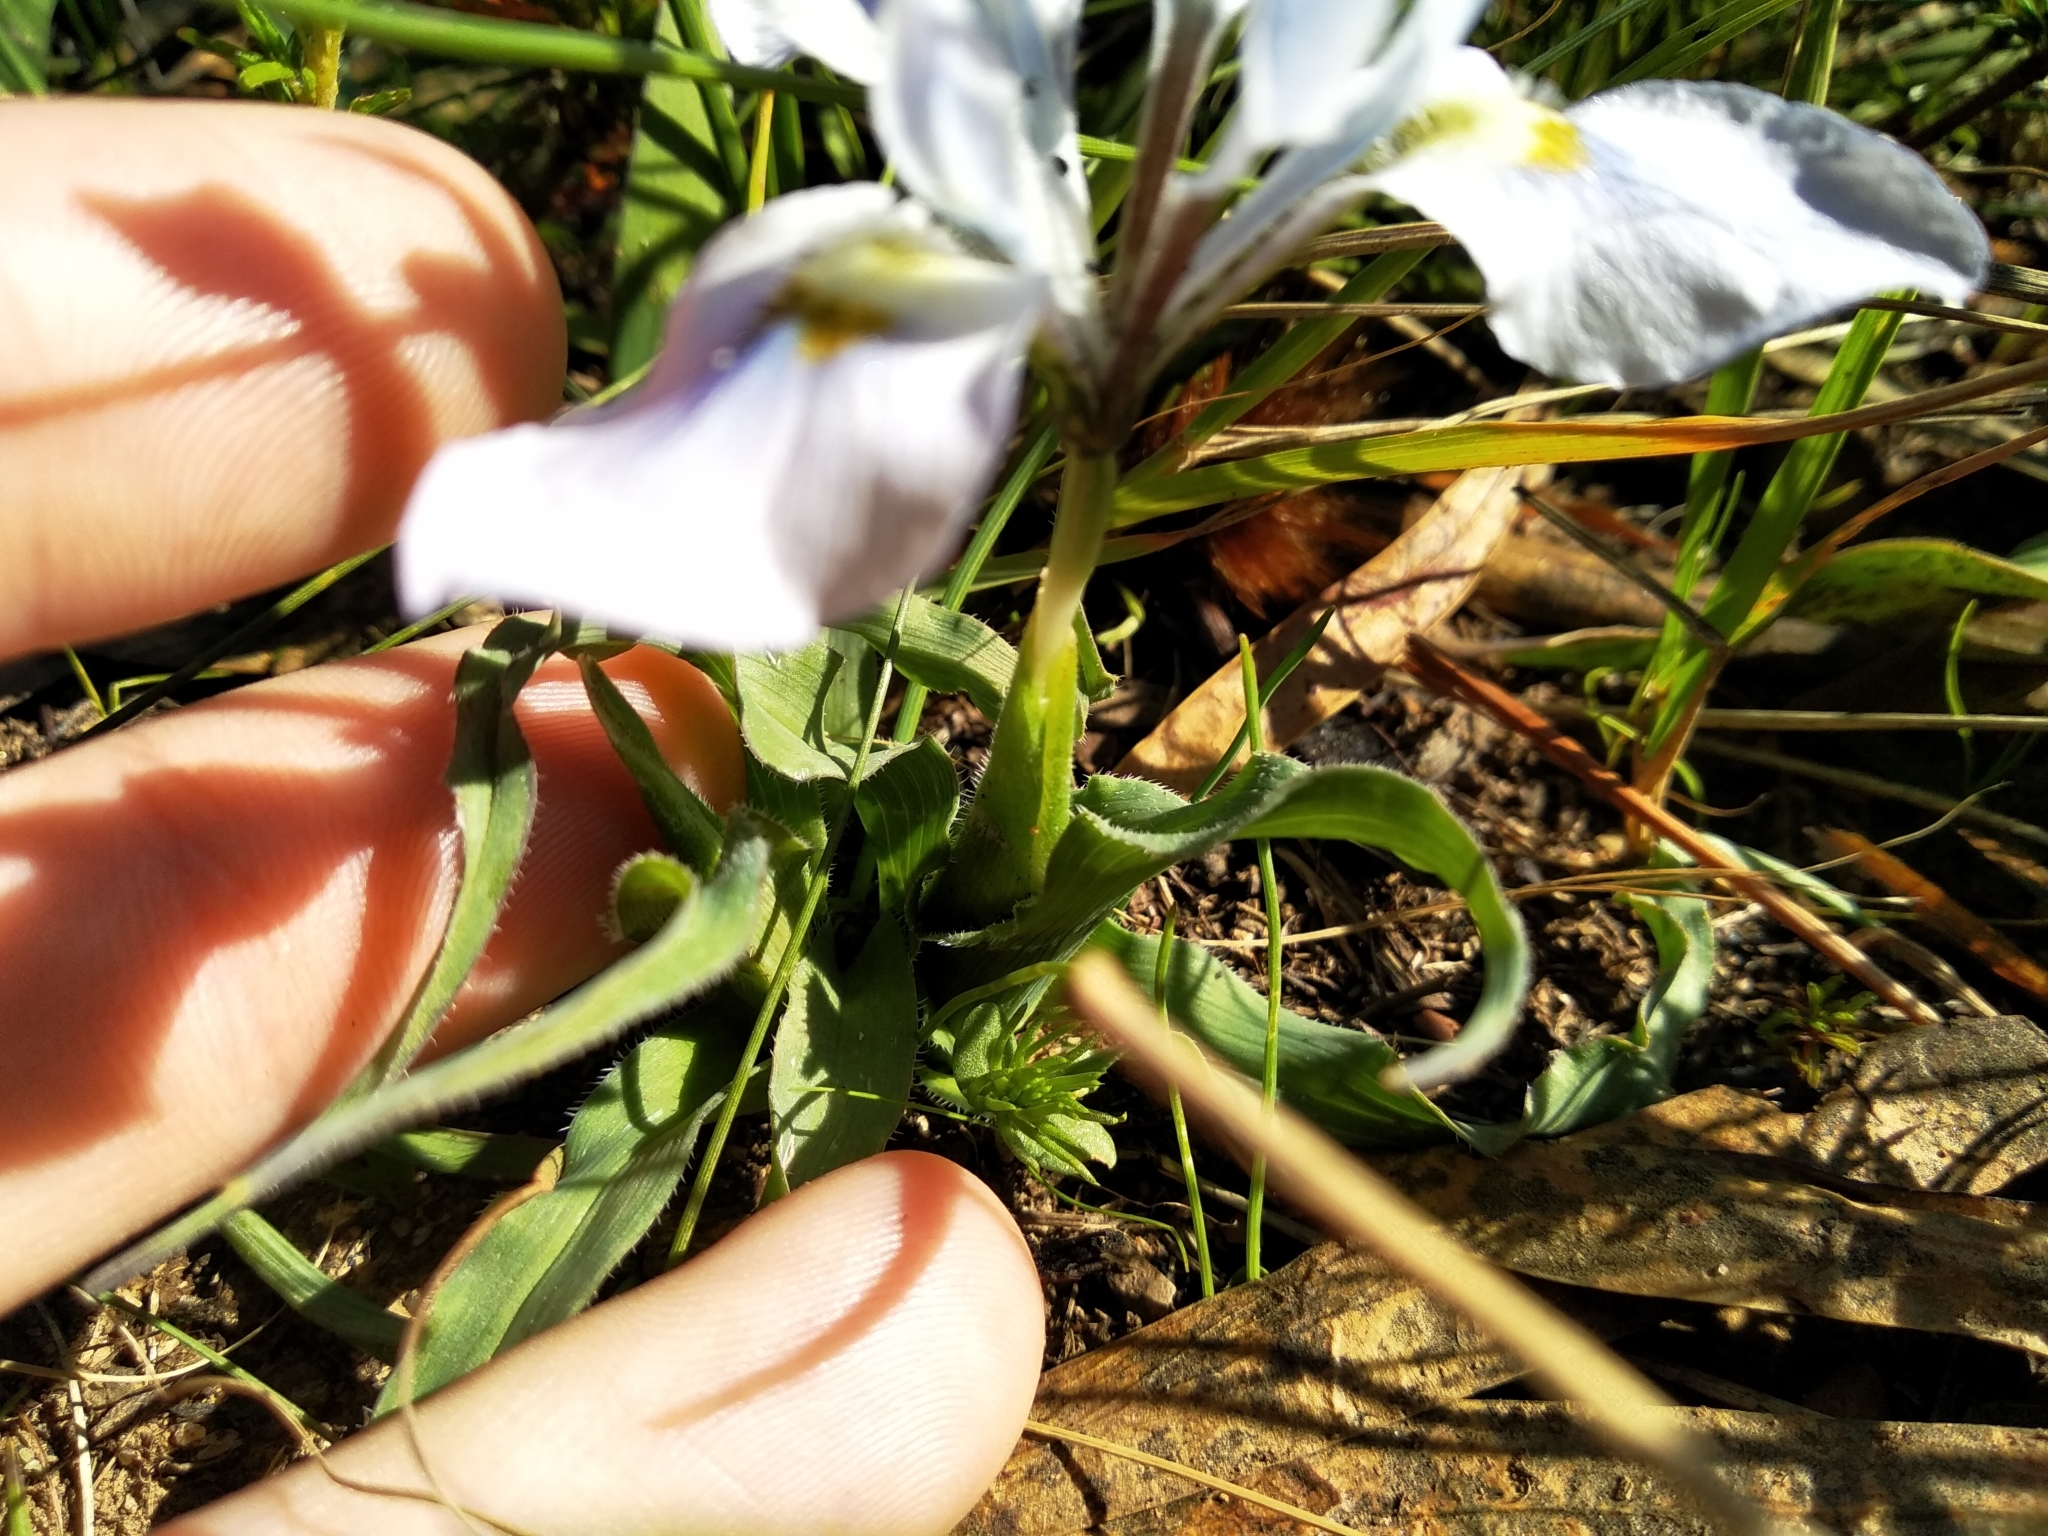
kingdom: Plantae
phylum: Tracheophyta
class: Liliopsida
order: Asparagales
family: Iridaceae
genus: Moraea
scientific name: Moraea ciliata
